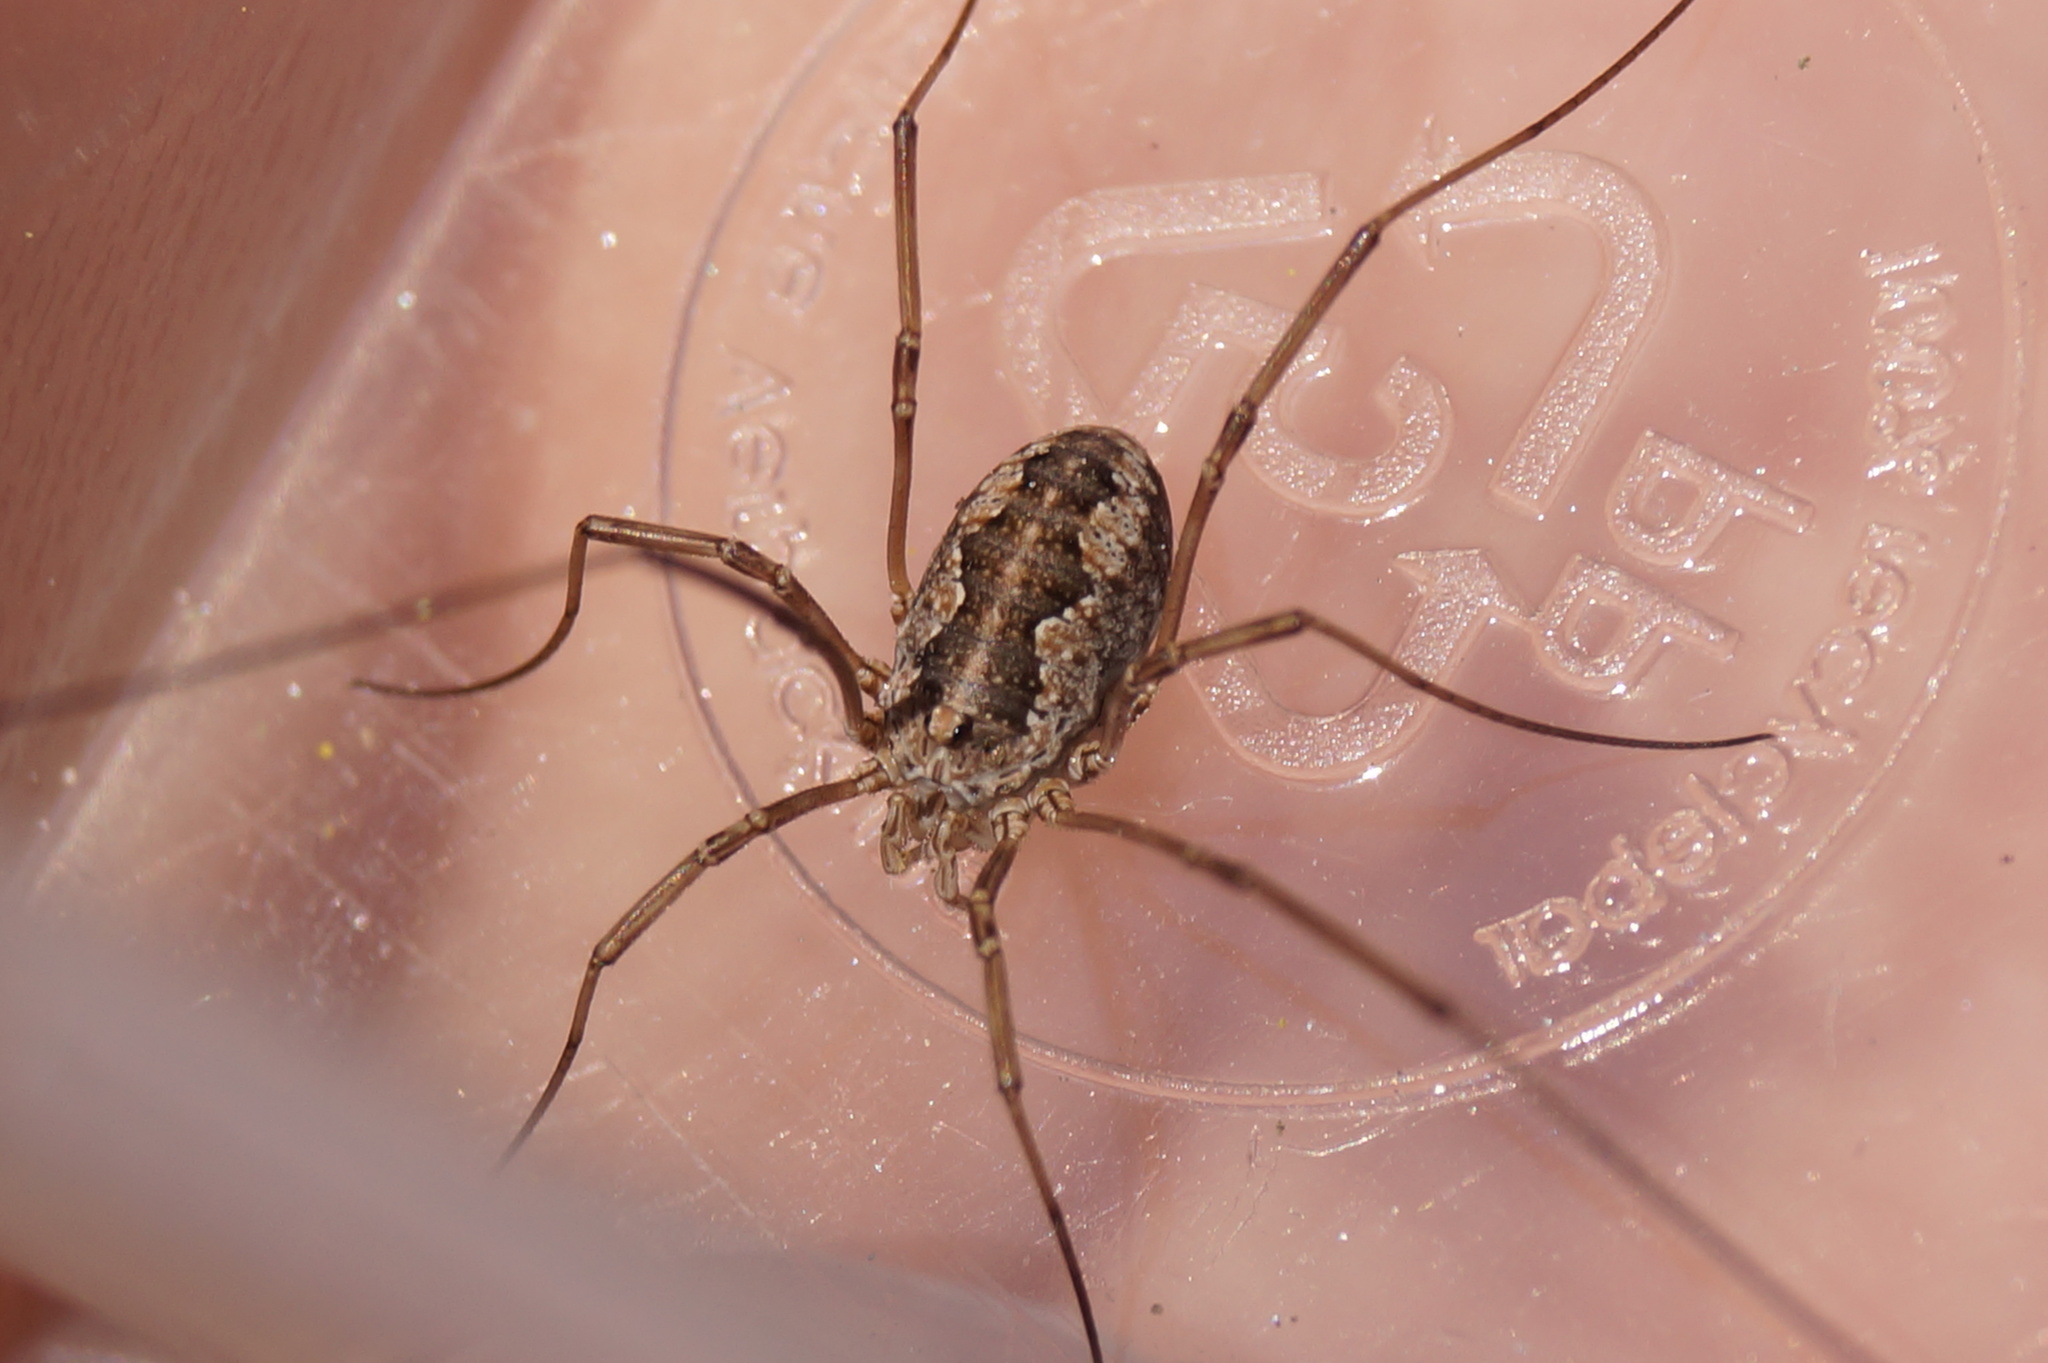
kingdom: Animalia
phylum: Arthropoda
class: Arachnida
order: Opiliones
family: Phalangiidae
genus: Phalangium
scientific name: Phalangium opilio
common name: Daddy longleg
